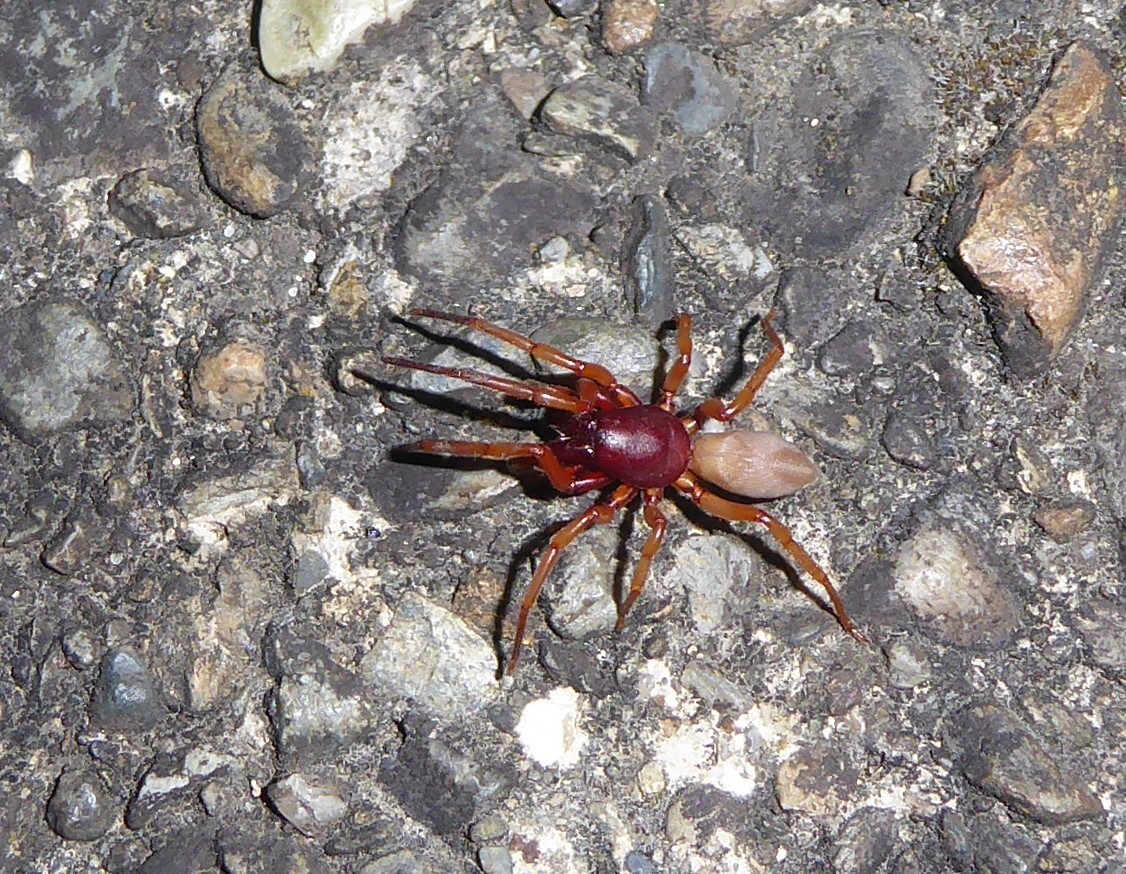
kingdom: Animalia
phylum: Arthropoda
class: Arachnida
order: Araneae
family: Dysderidae
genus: Dysdera
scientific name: Dysdera crocata
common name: Woodlouse spider
